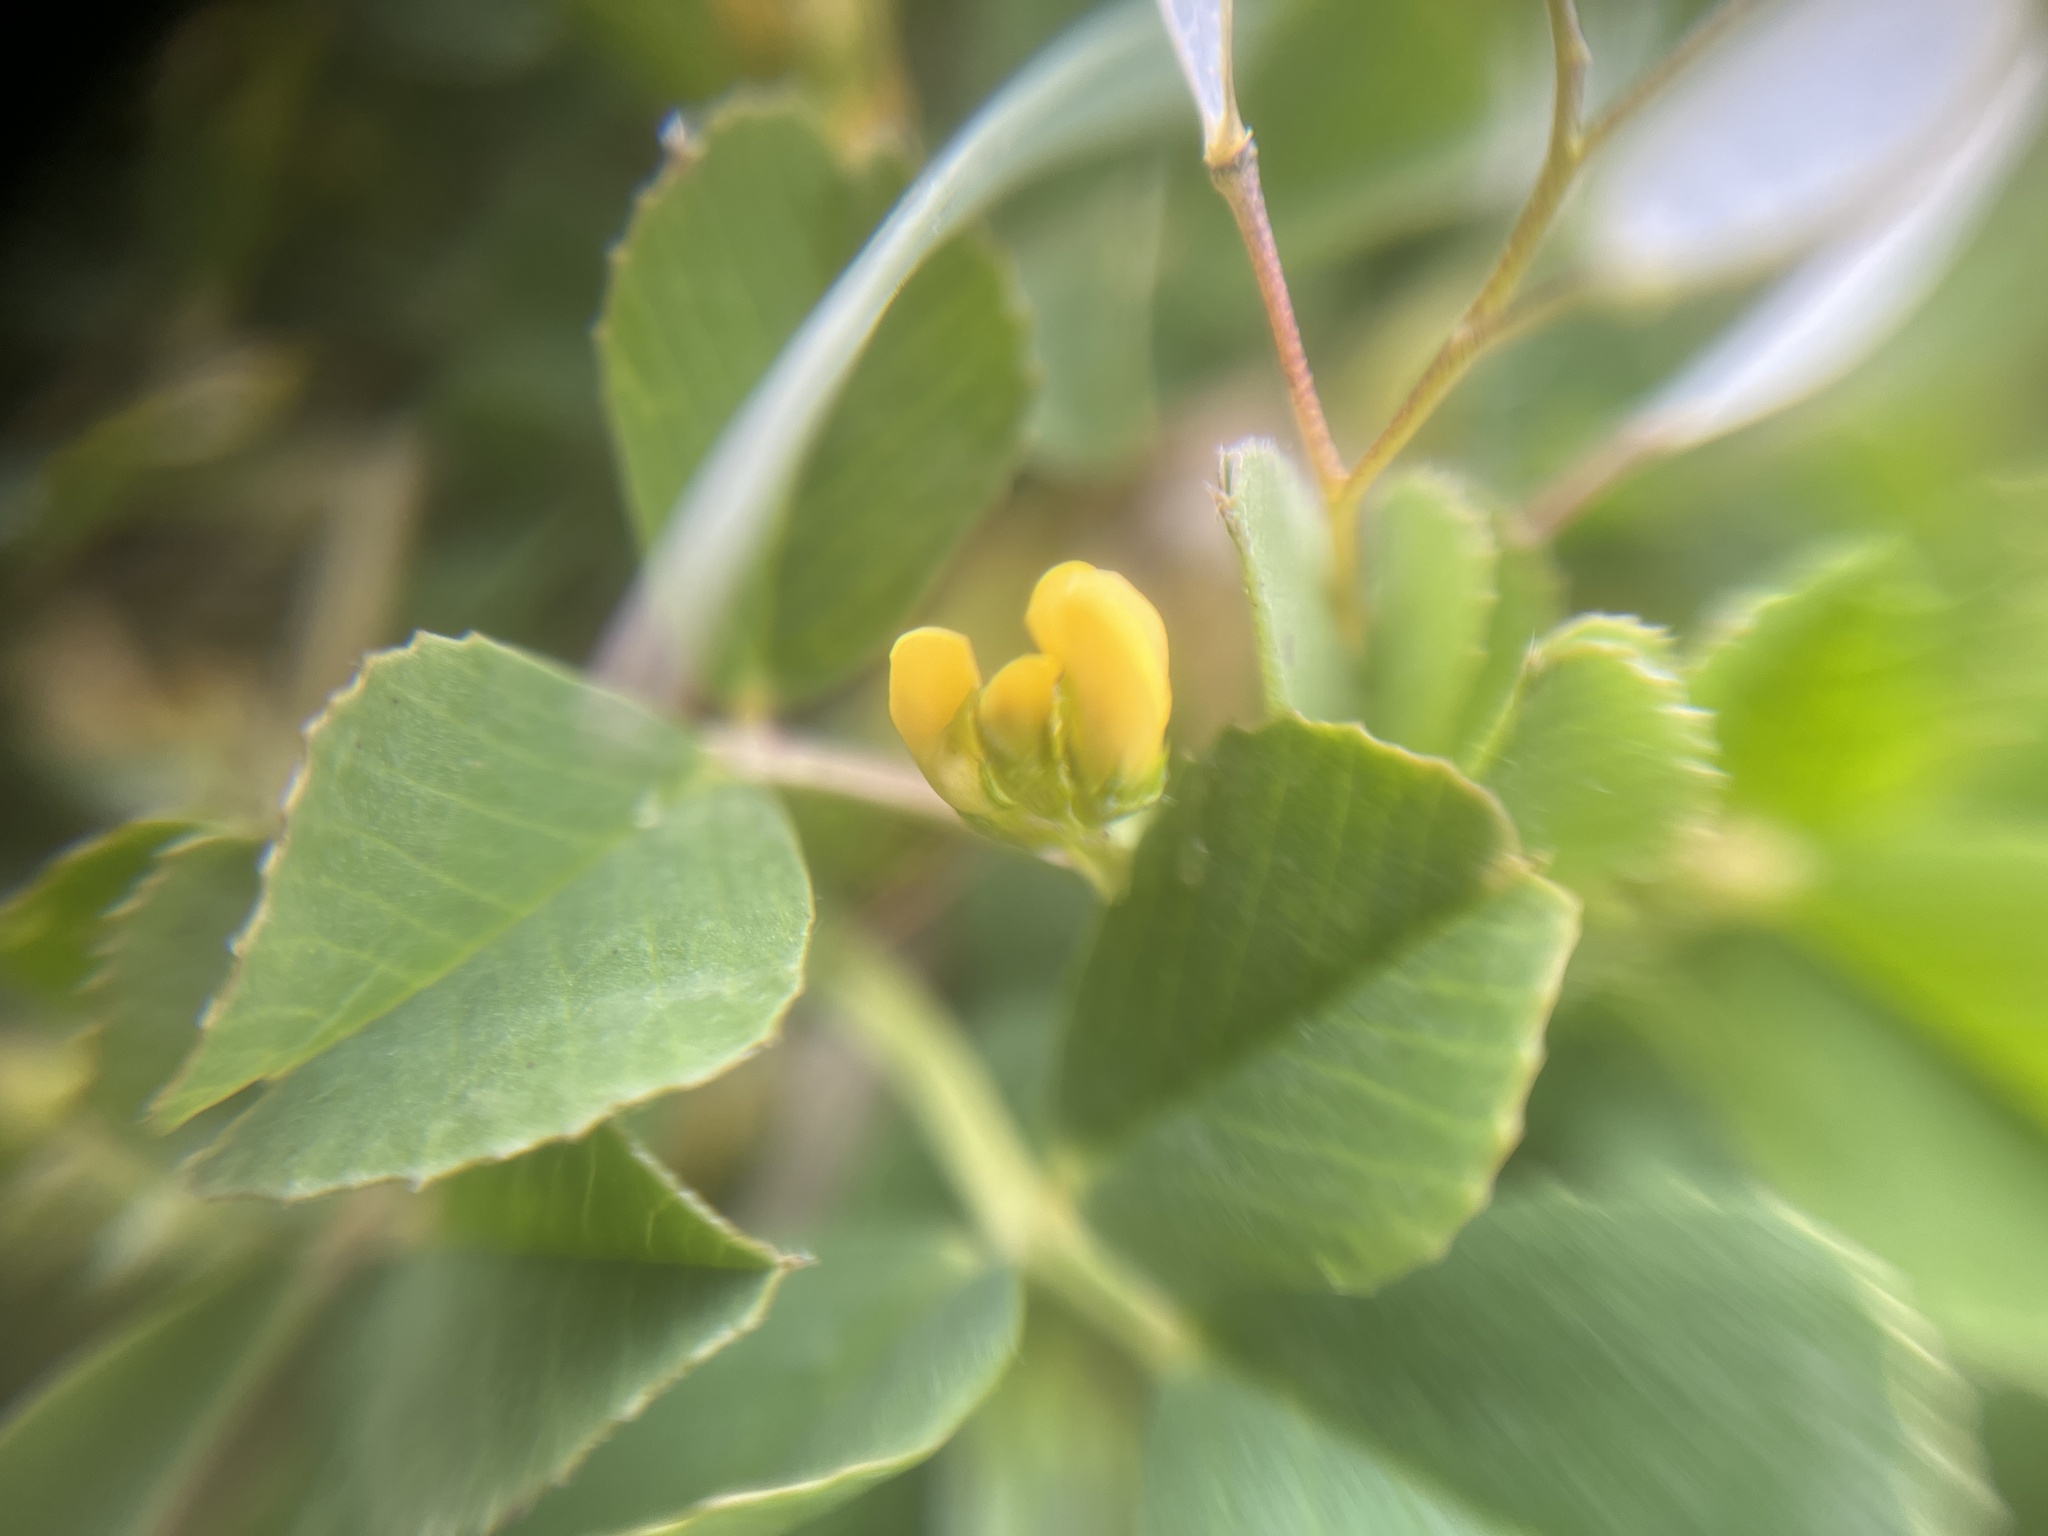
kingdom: Plantae
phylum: Tracheophyta
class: Magnoliopsida
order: Fabales
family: Fabaceae
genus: Medicago
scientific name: Medicago lupulina
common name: Black medick
